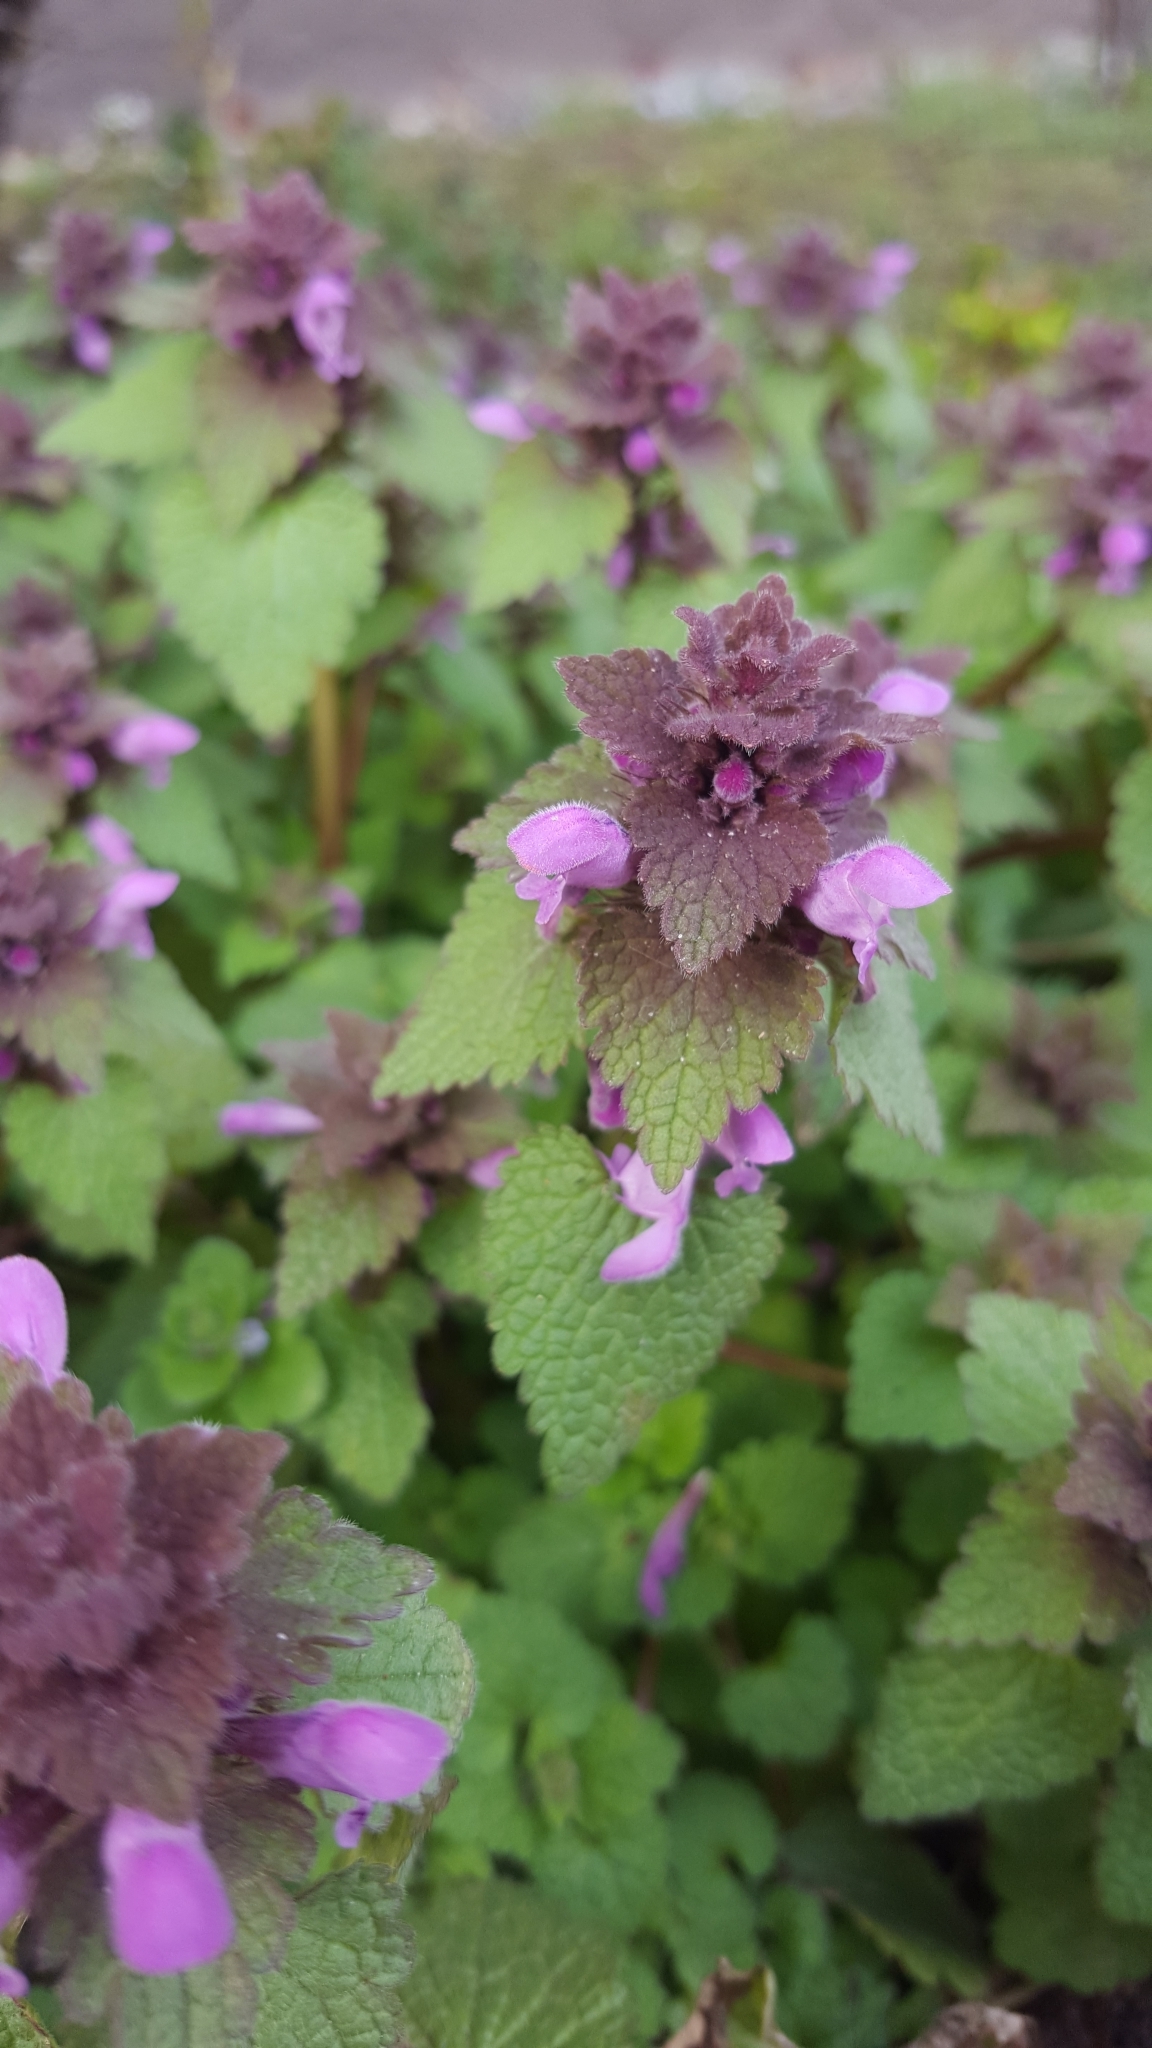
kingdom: Plantae
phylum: Tracheophyta
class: Magnoliopsida
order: Lamiales
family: Lamiaceae
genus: Lamium
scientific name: Lamium purpureum
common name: Red dead-nettle
